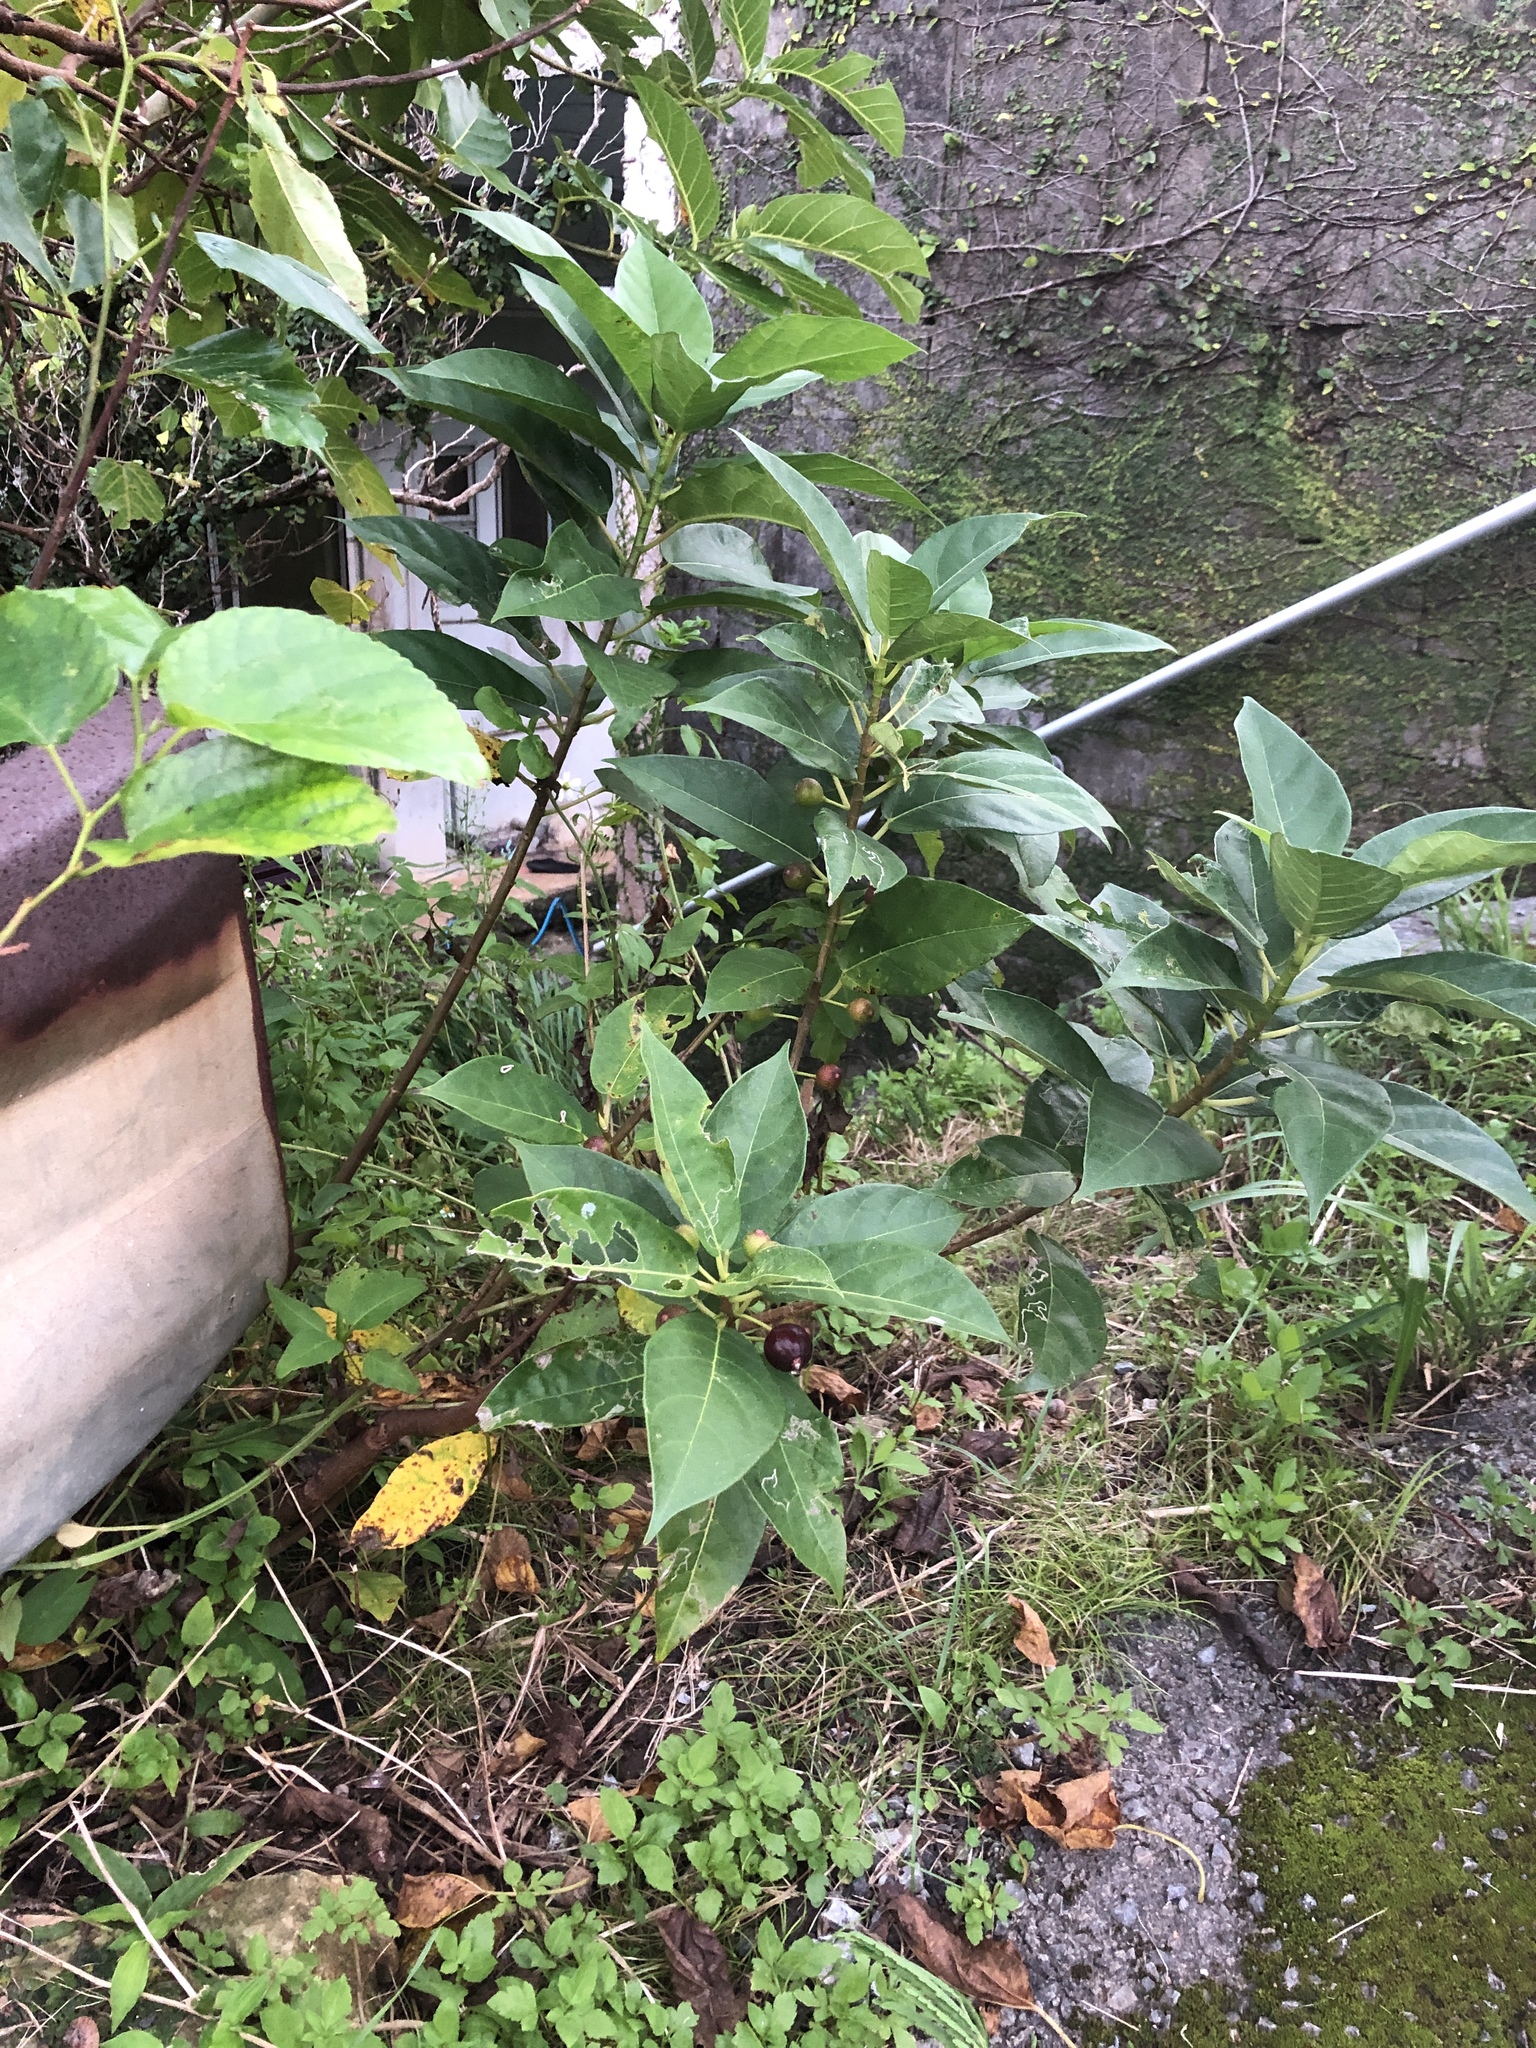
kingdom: Plantae
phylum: Tracheophyta
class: Magnoliopsida
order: Rosales
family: Moraceae
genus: Ficus
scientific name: Ficus erecta
